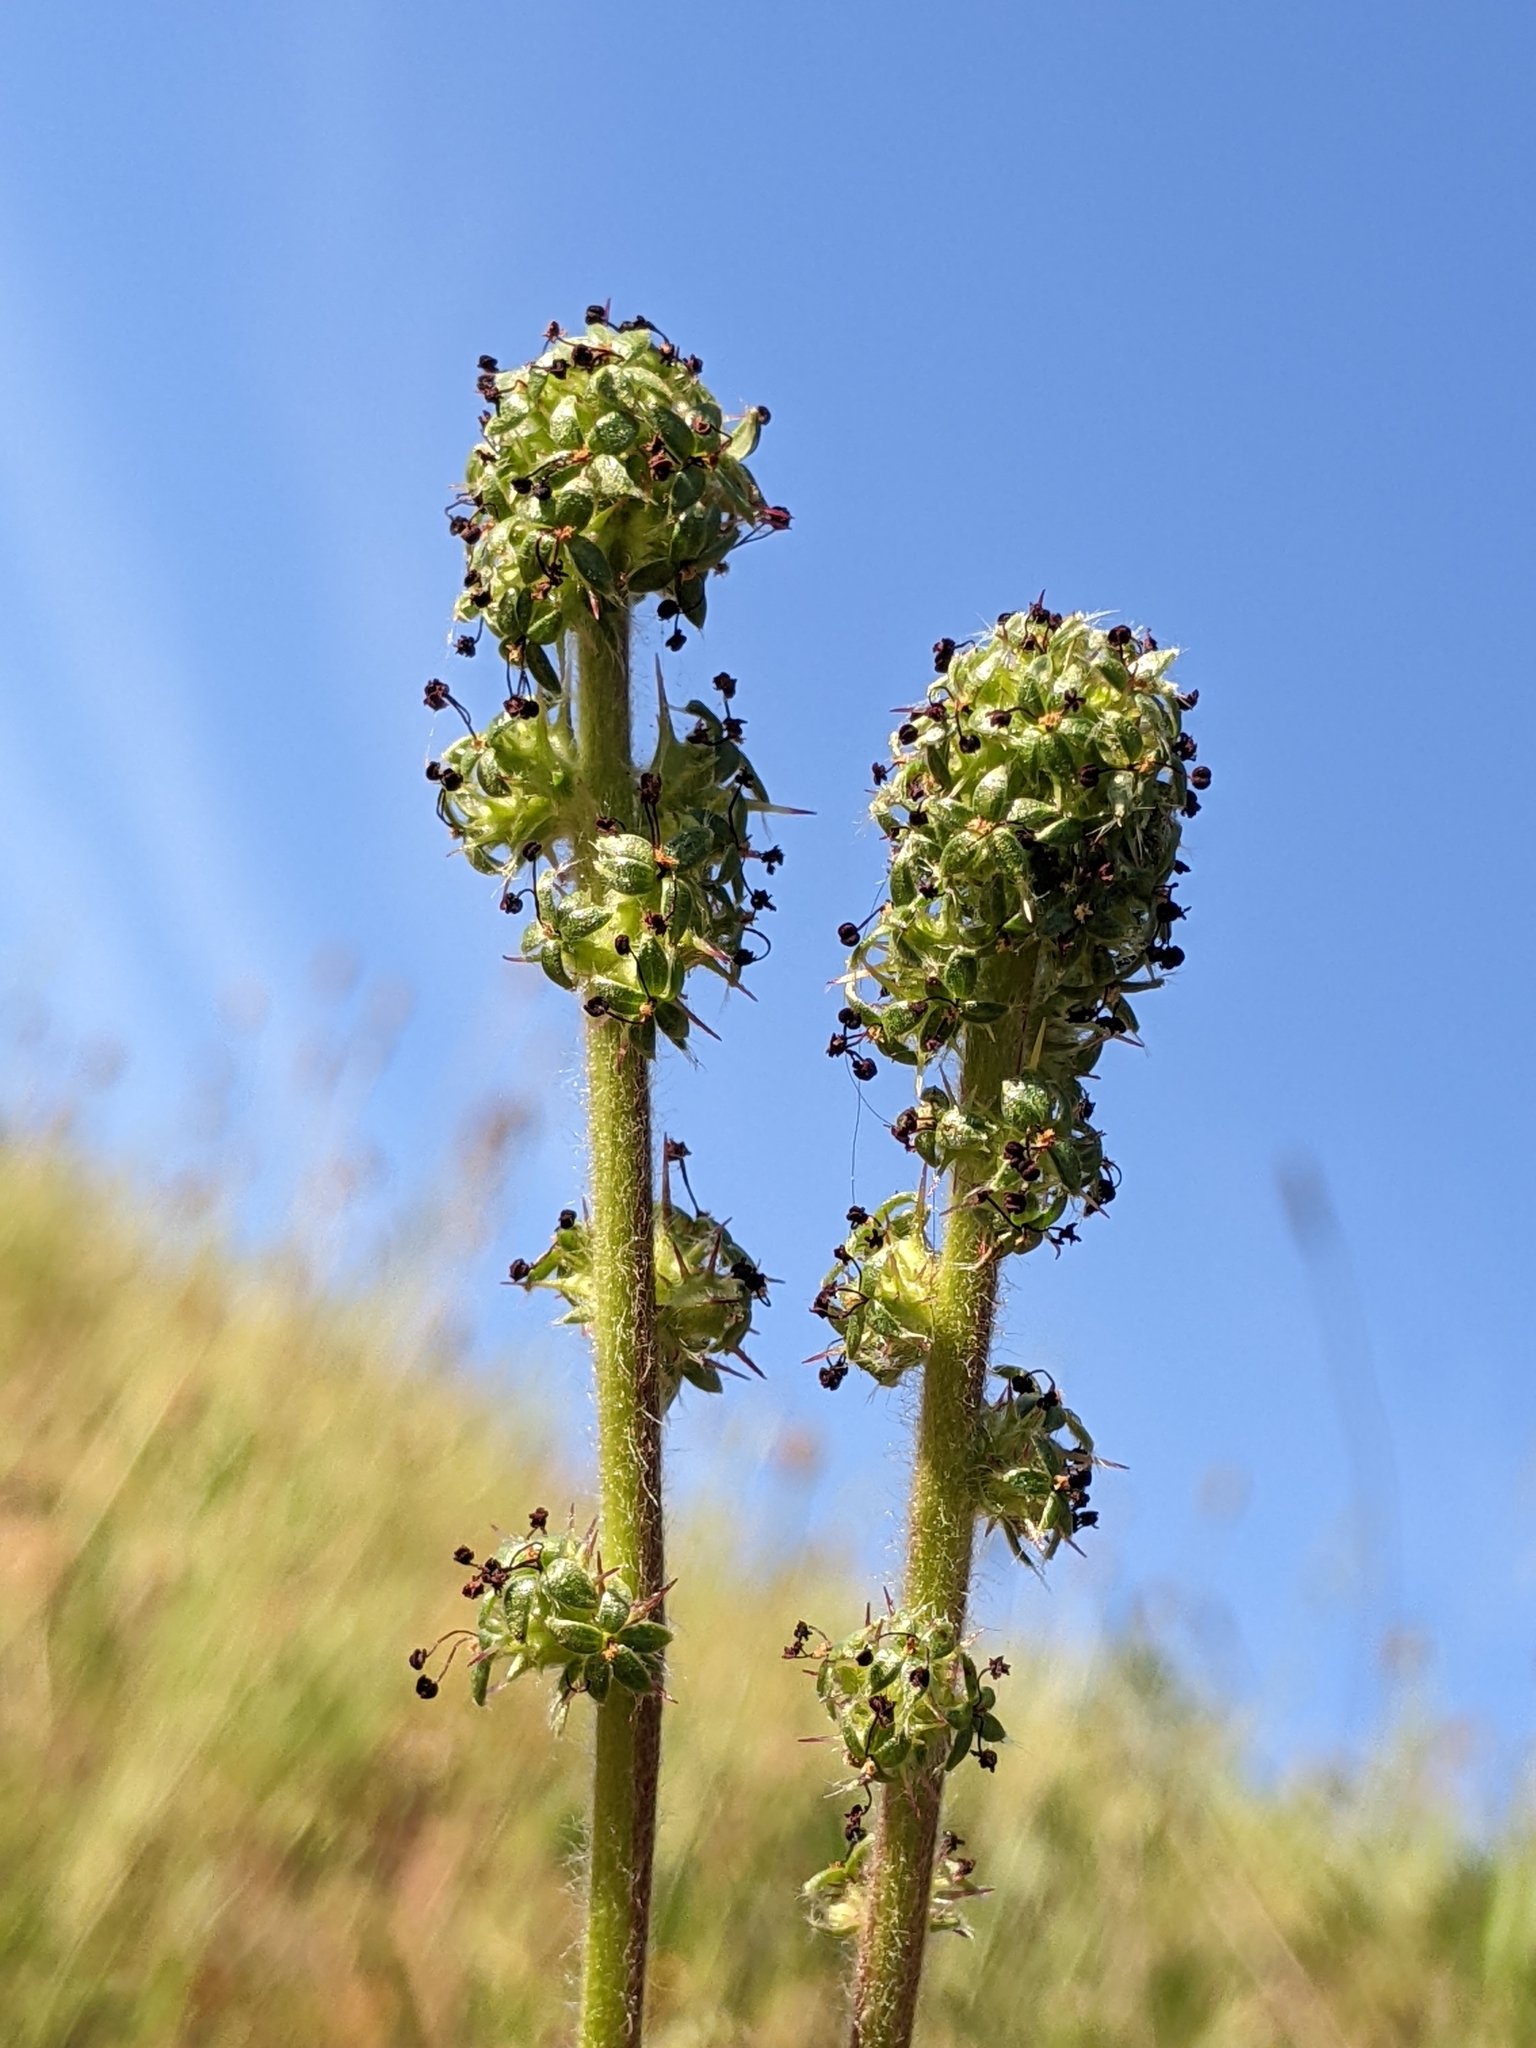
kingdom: Plantae
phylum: Tracheophyta
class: Magnoliopsida
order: Rosales
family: Rosaceae
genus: Acaena
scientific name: Acaena pinnatifida
